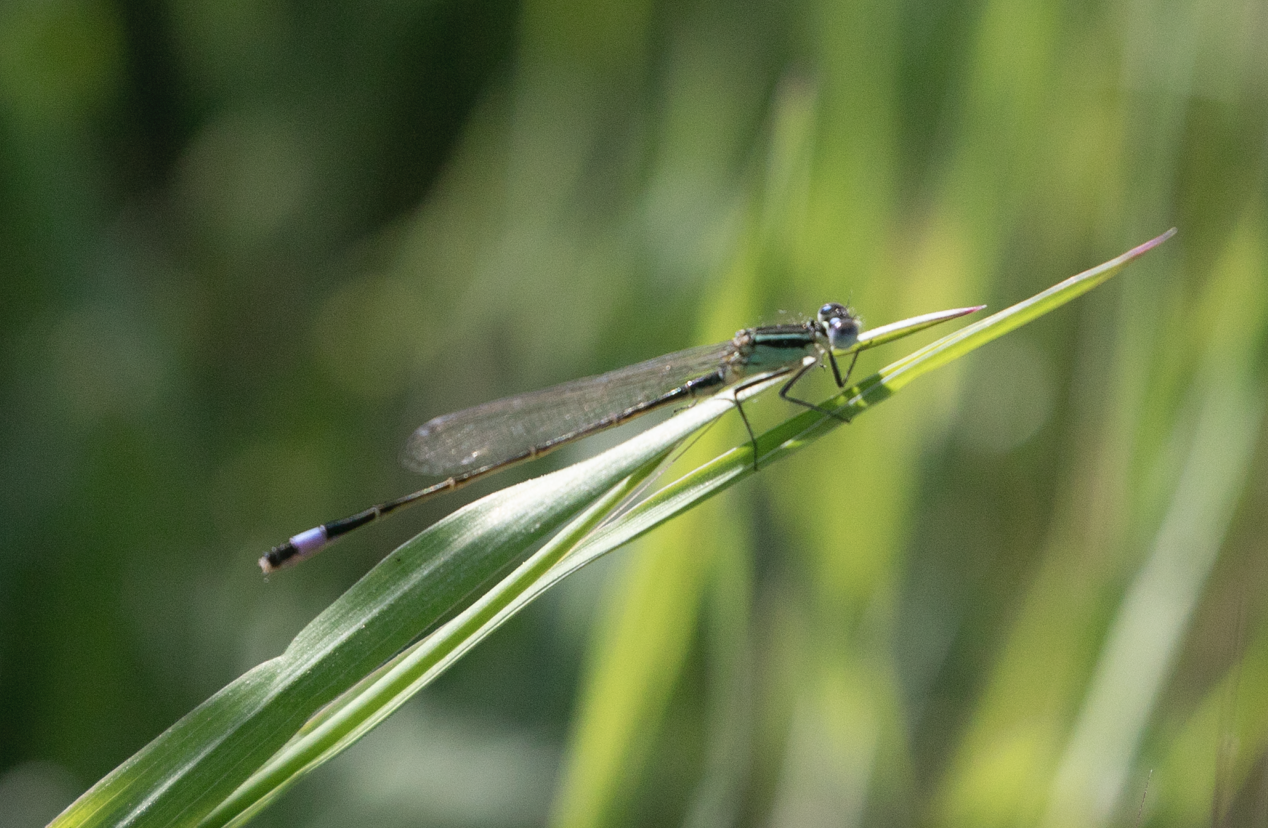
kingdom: Animalia
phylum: Arthropoda
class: Insecta
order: Odonata
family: Coenagrionidae
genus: Ischnura
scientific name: Ischnura elegans
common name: Blue-tailed damselfly
